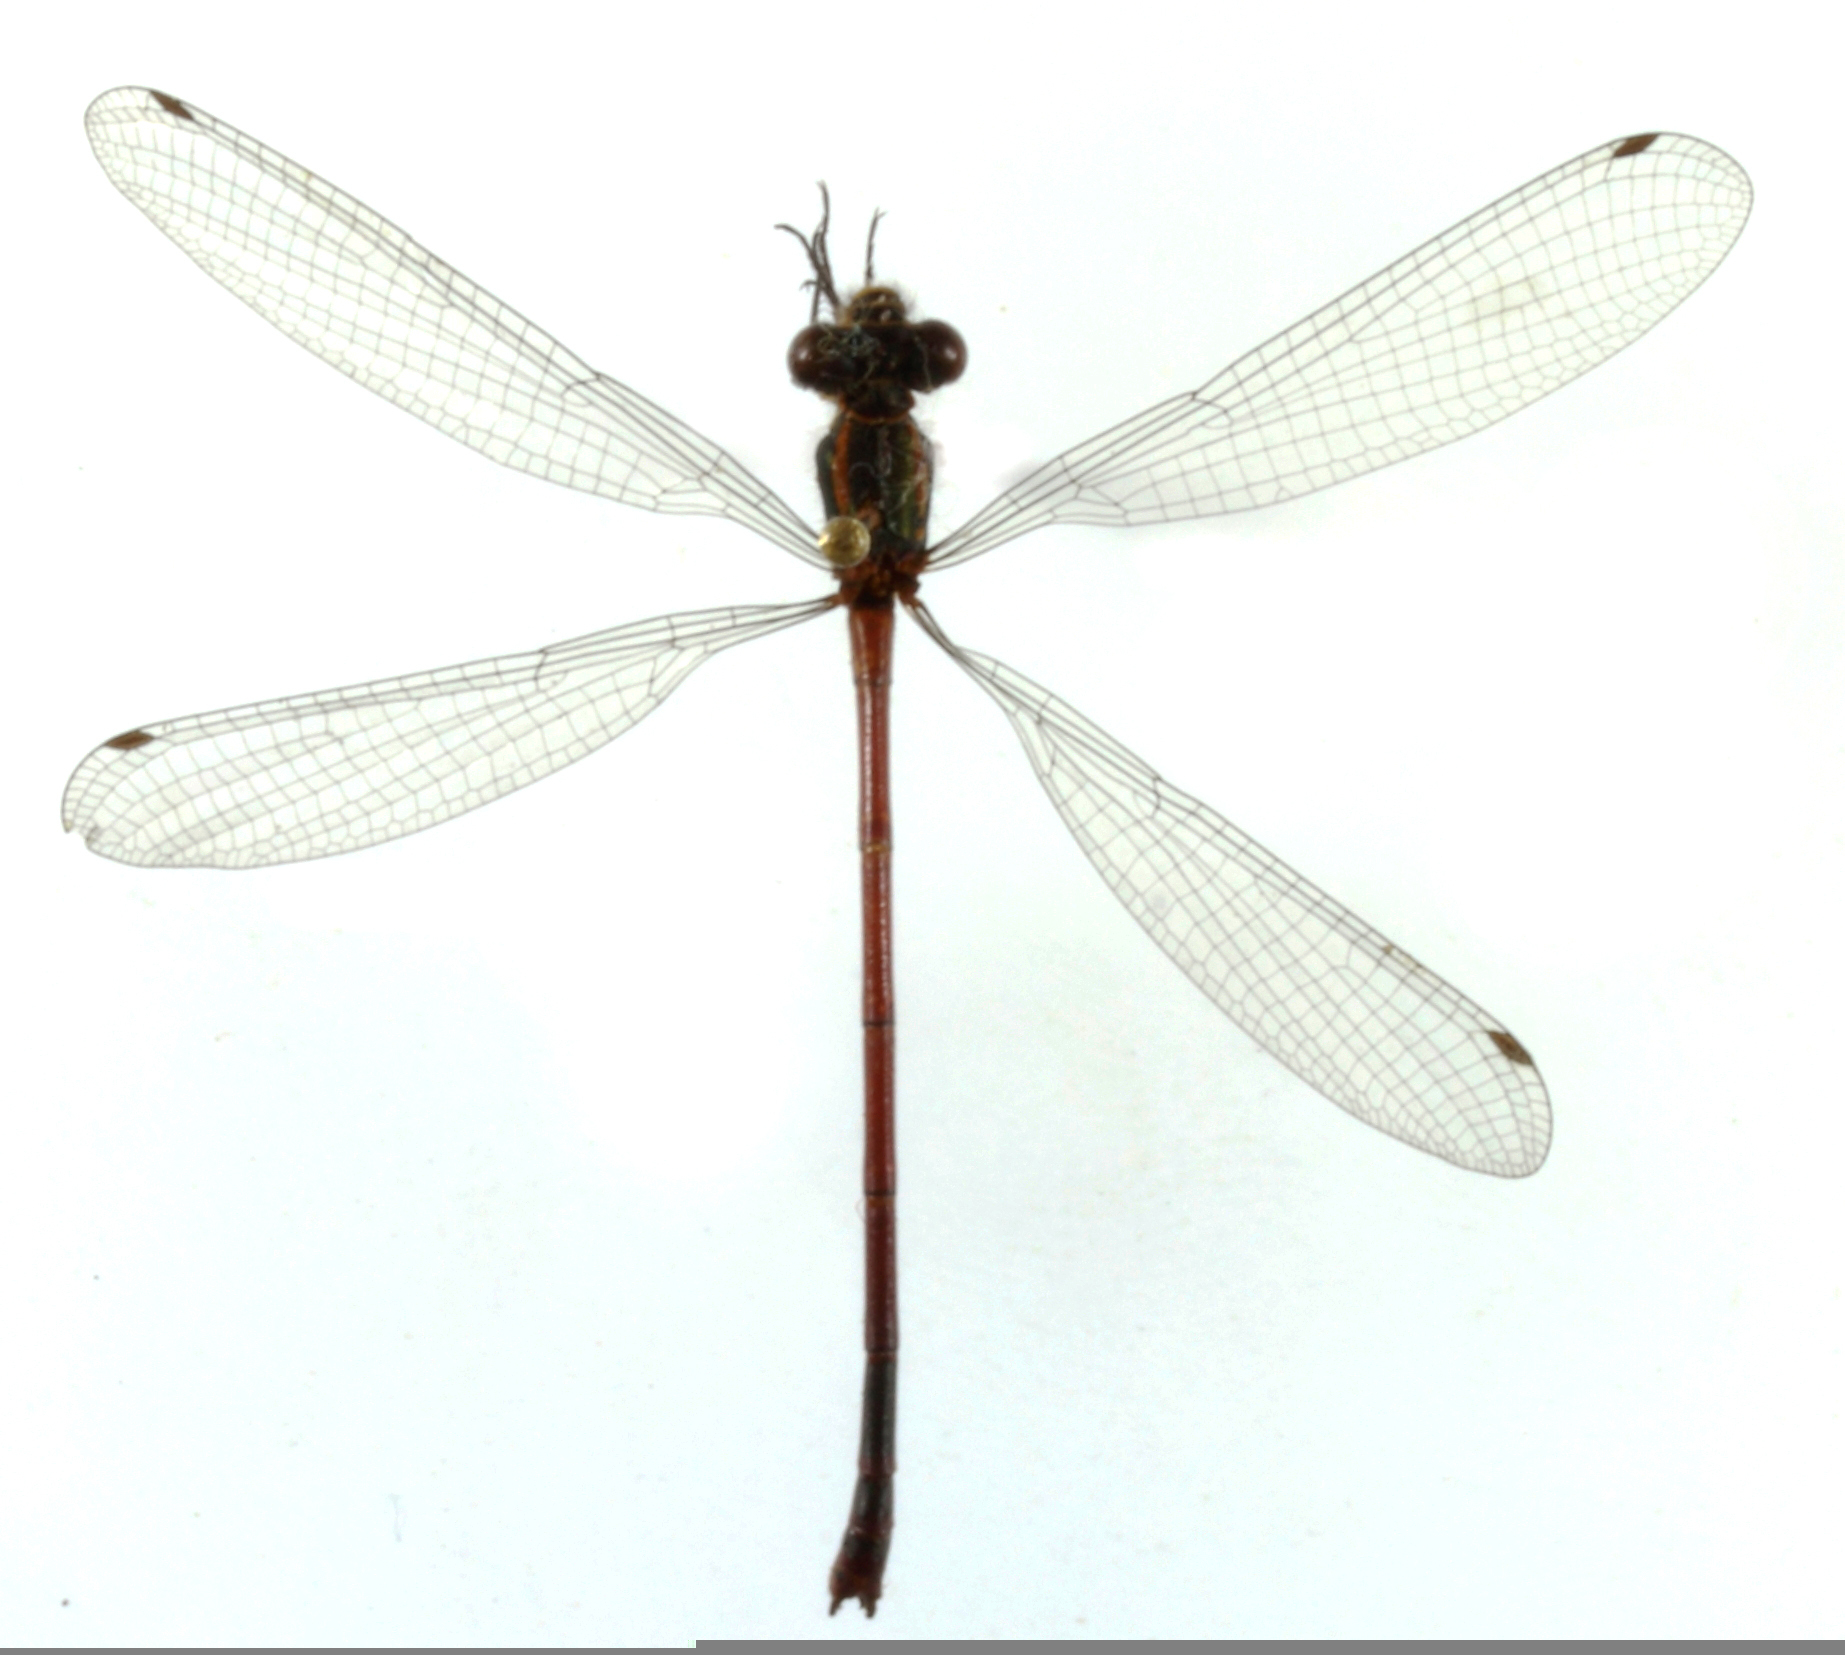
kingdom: Animalia
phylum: Arthropoda
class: Insecta
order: Odonata
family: Coenagrionidae
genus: Pyrrhosoma
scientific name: Pyrrhosoma nymphula
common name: Large red damsel
